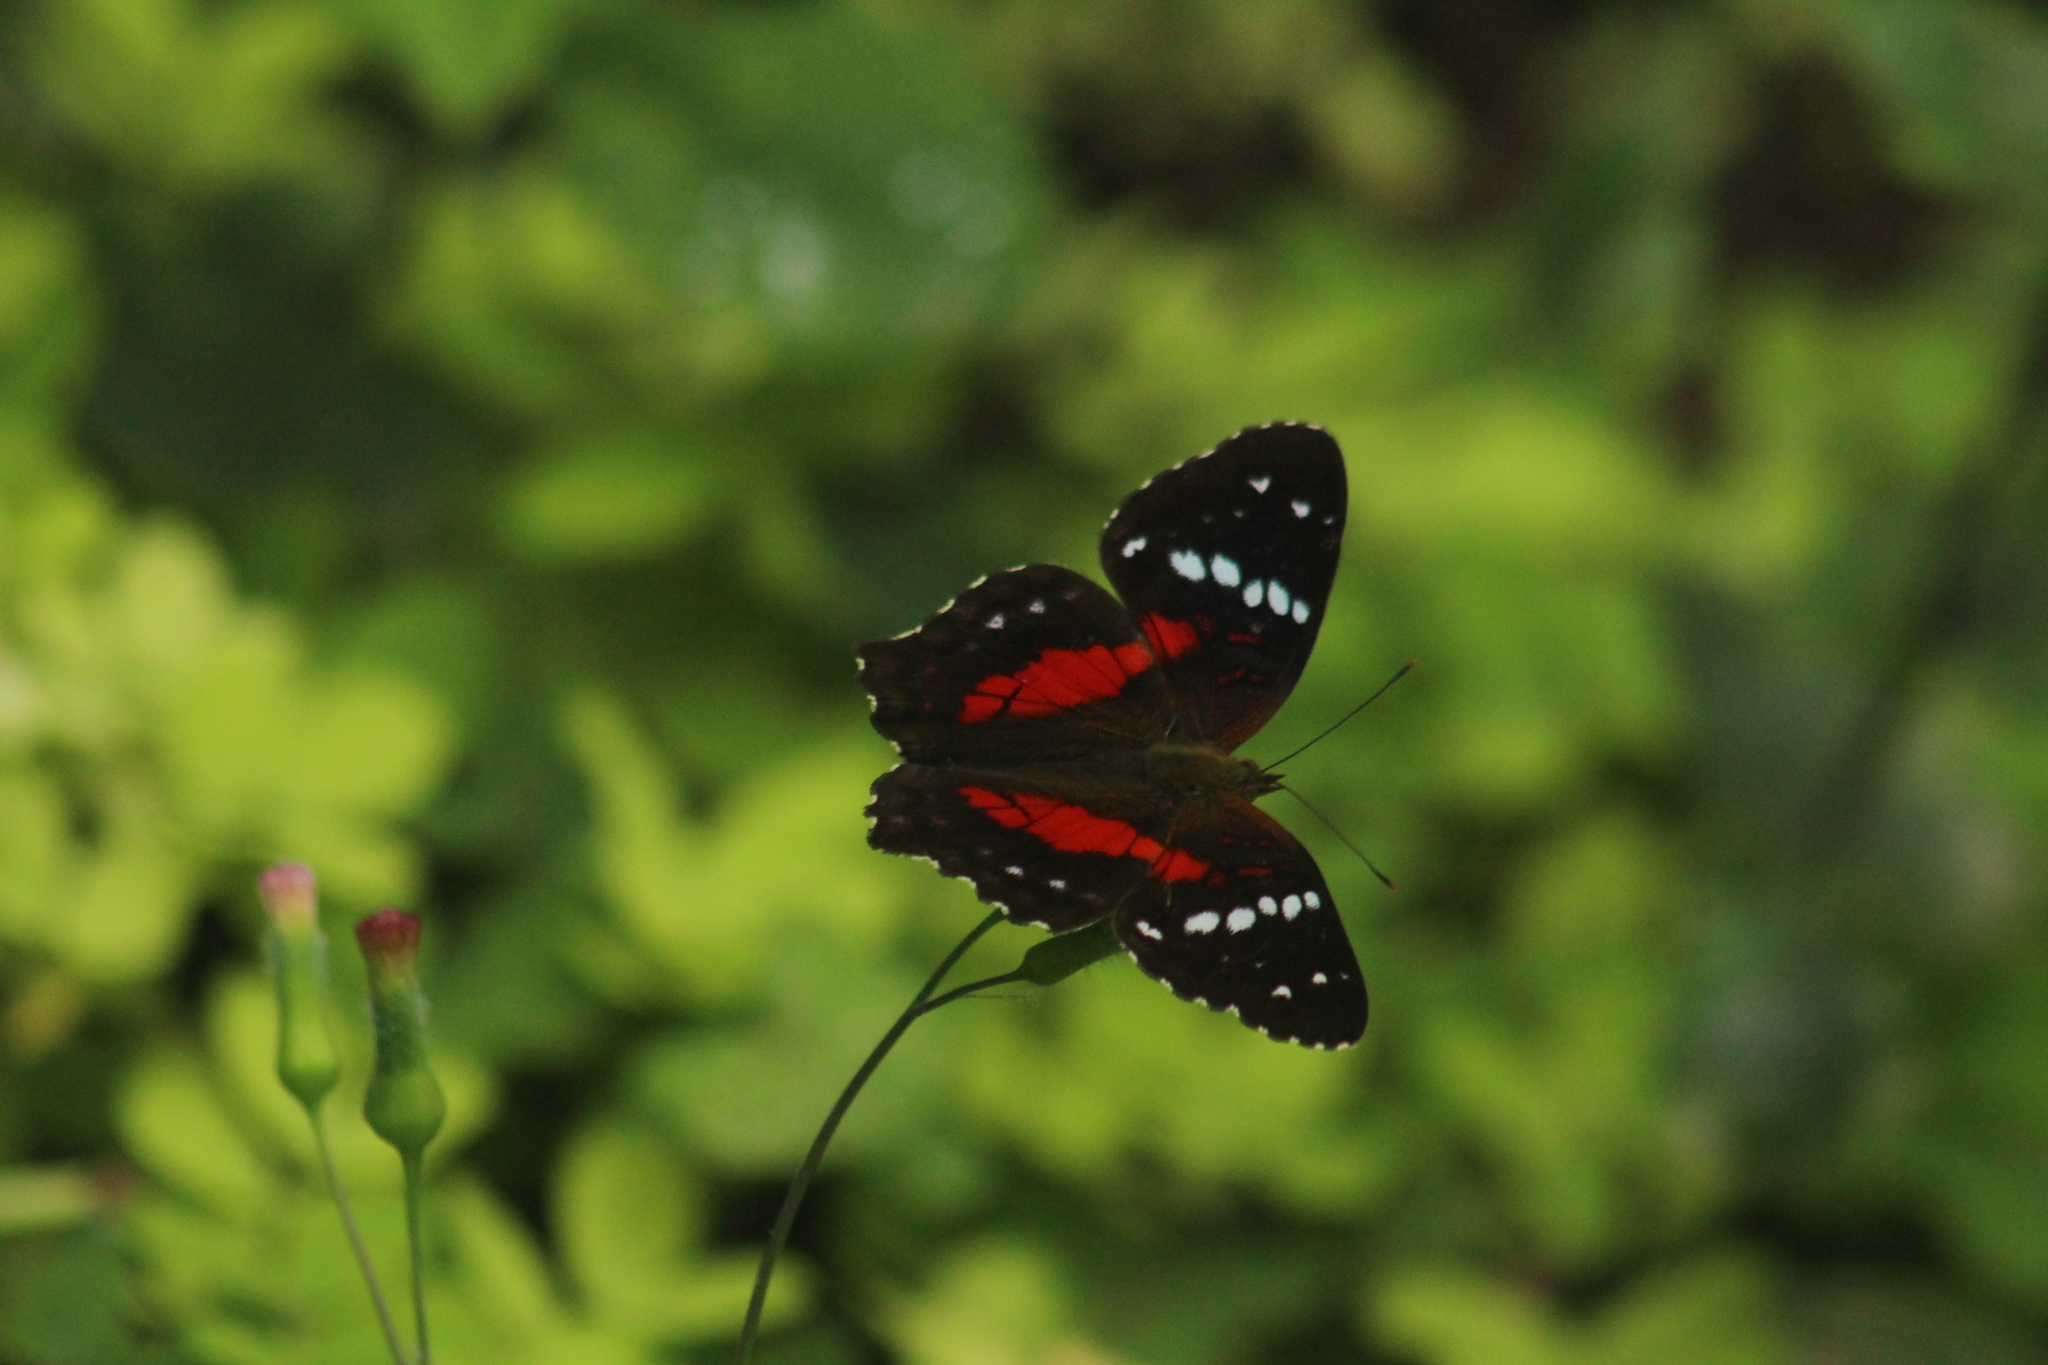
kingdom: Animalia
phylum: Arthropoda
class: Insecta
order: Lepidoptera
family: Nymphalidae
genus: Anartia
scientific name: Anartia amathea
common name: Red peacock
